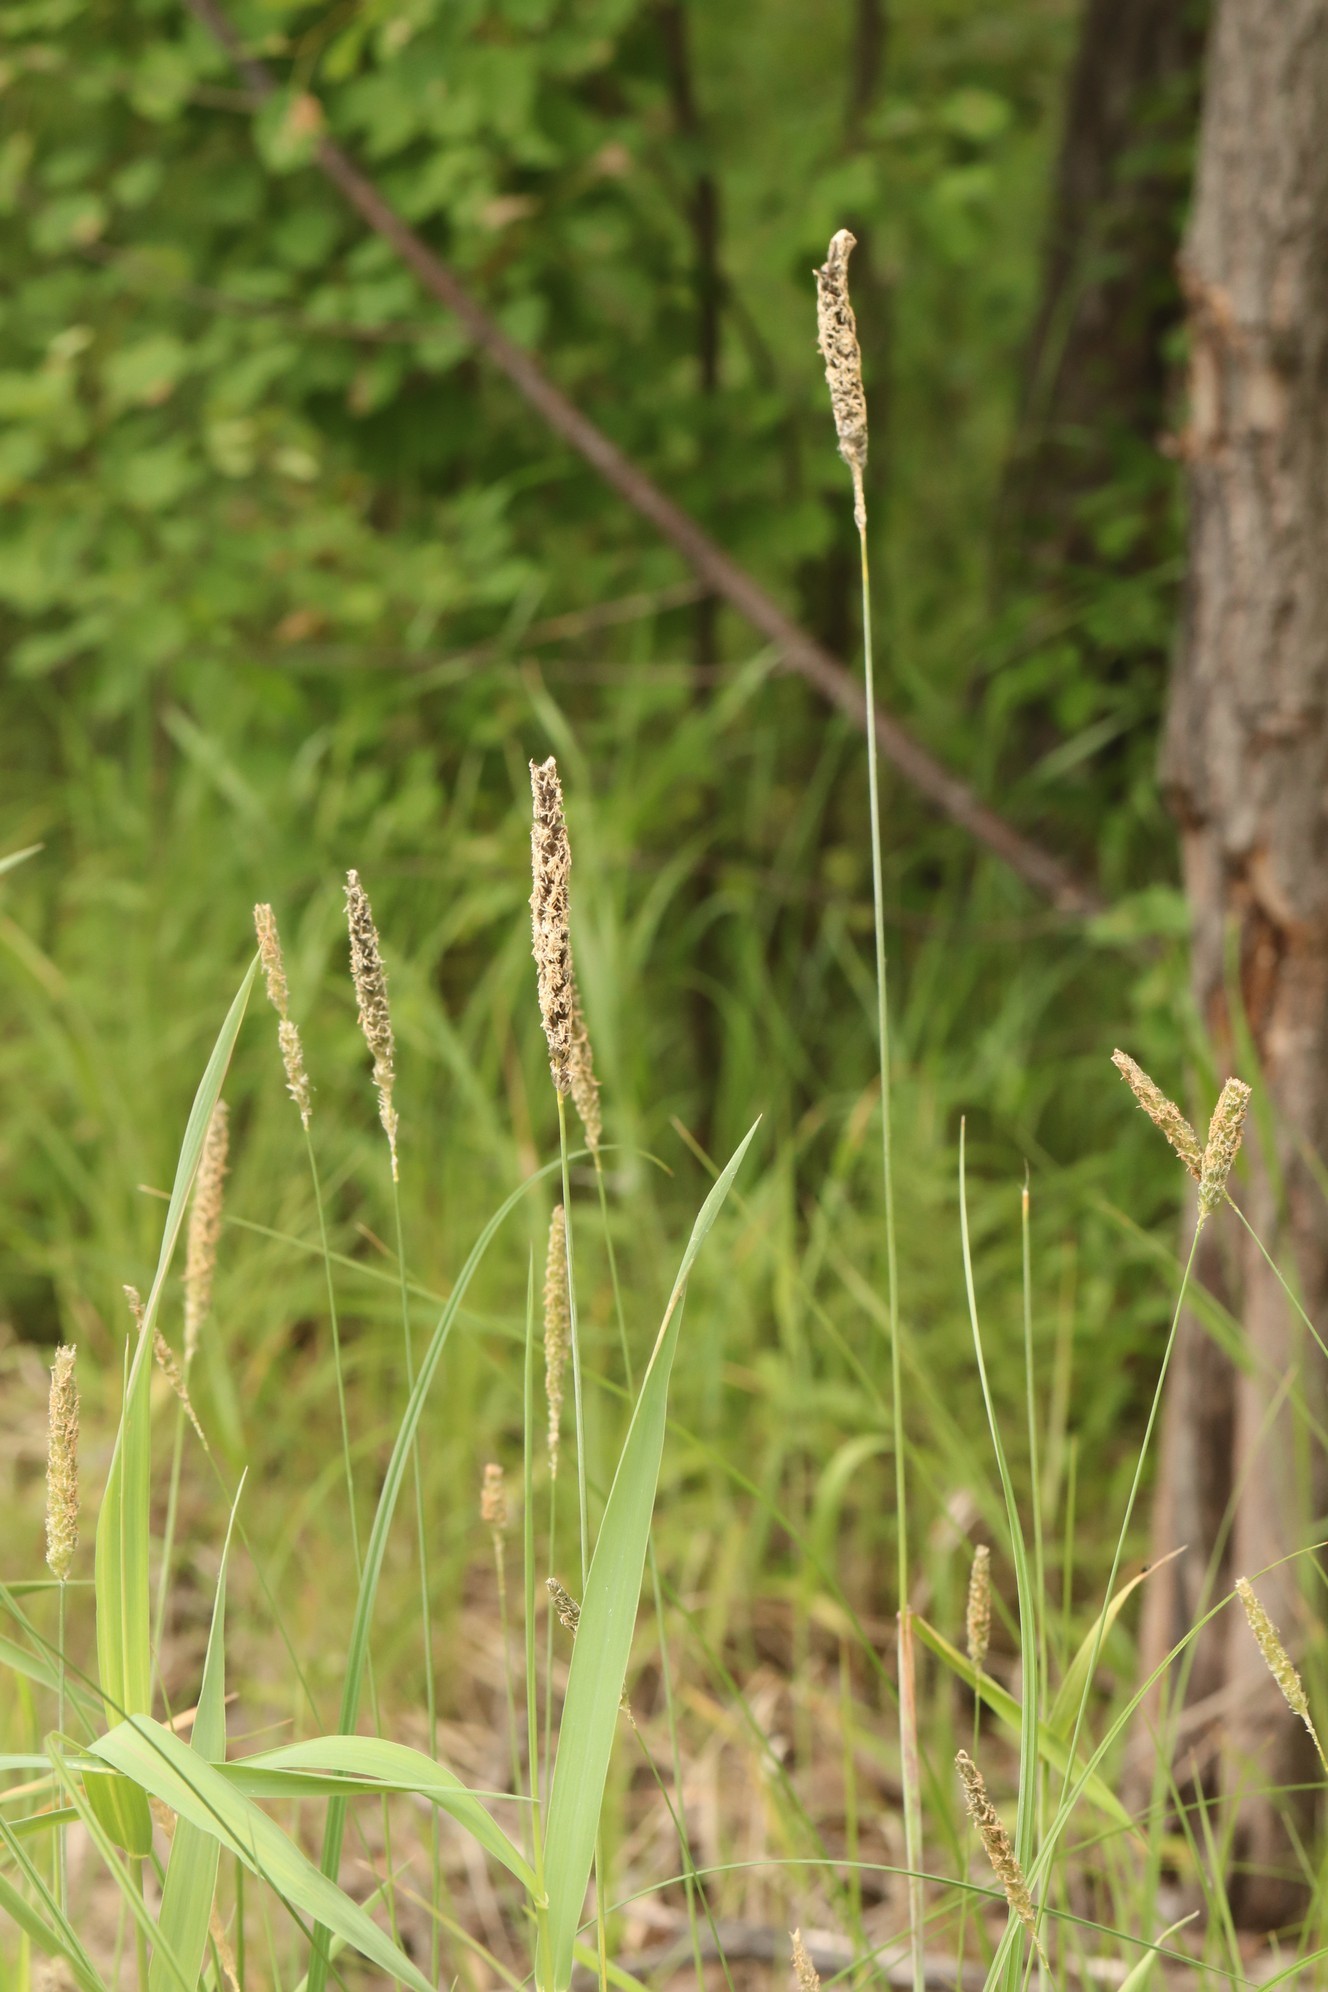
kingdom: Plantae
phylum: Tracheophyta
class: Liliopsida
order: Poales
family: Poaceae
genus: Alopecurus
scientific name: Alopecurus pratensis
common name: Meadow foxtail
